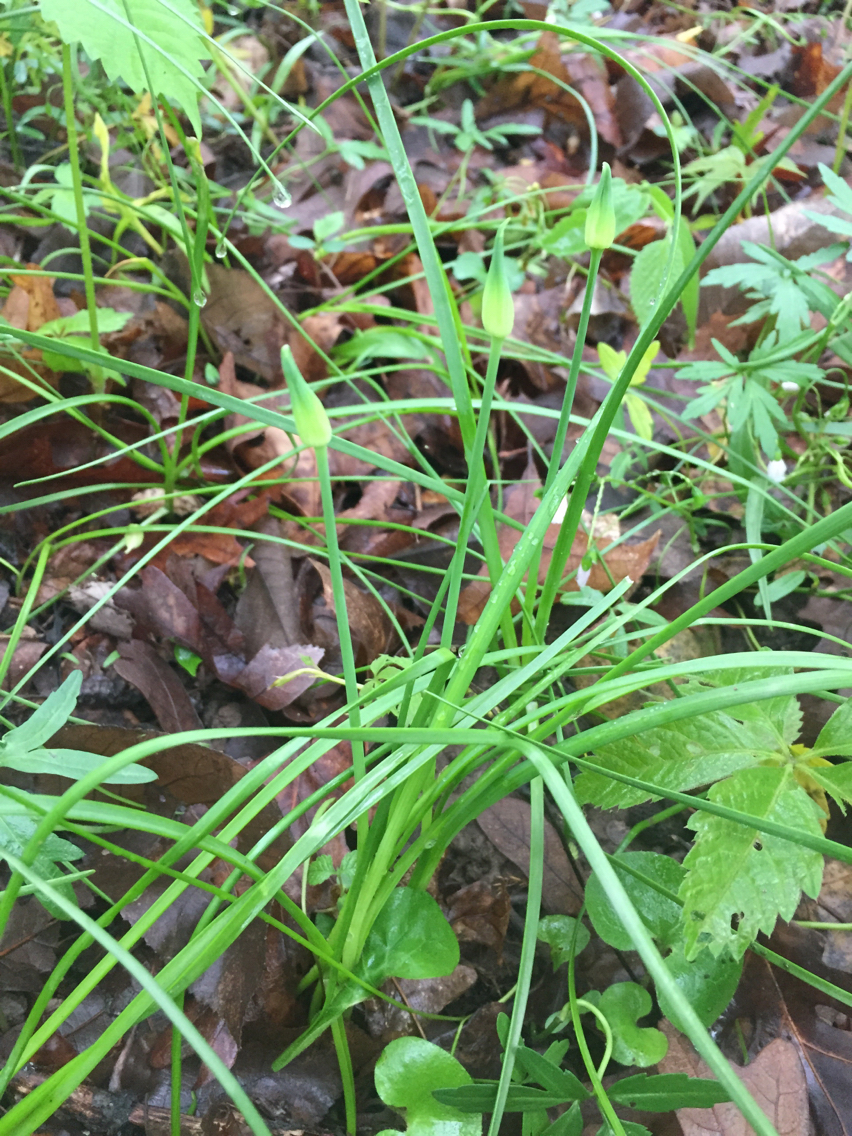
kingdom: Plantae
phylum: Tracheophyta
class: Liliopsida
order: Asparagales
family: Amaryllidaceae
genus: Allium
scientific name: Allium canadense
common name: Meadow garlic
